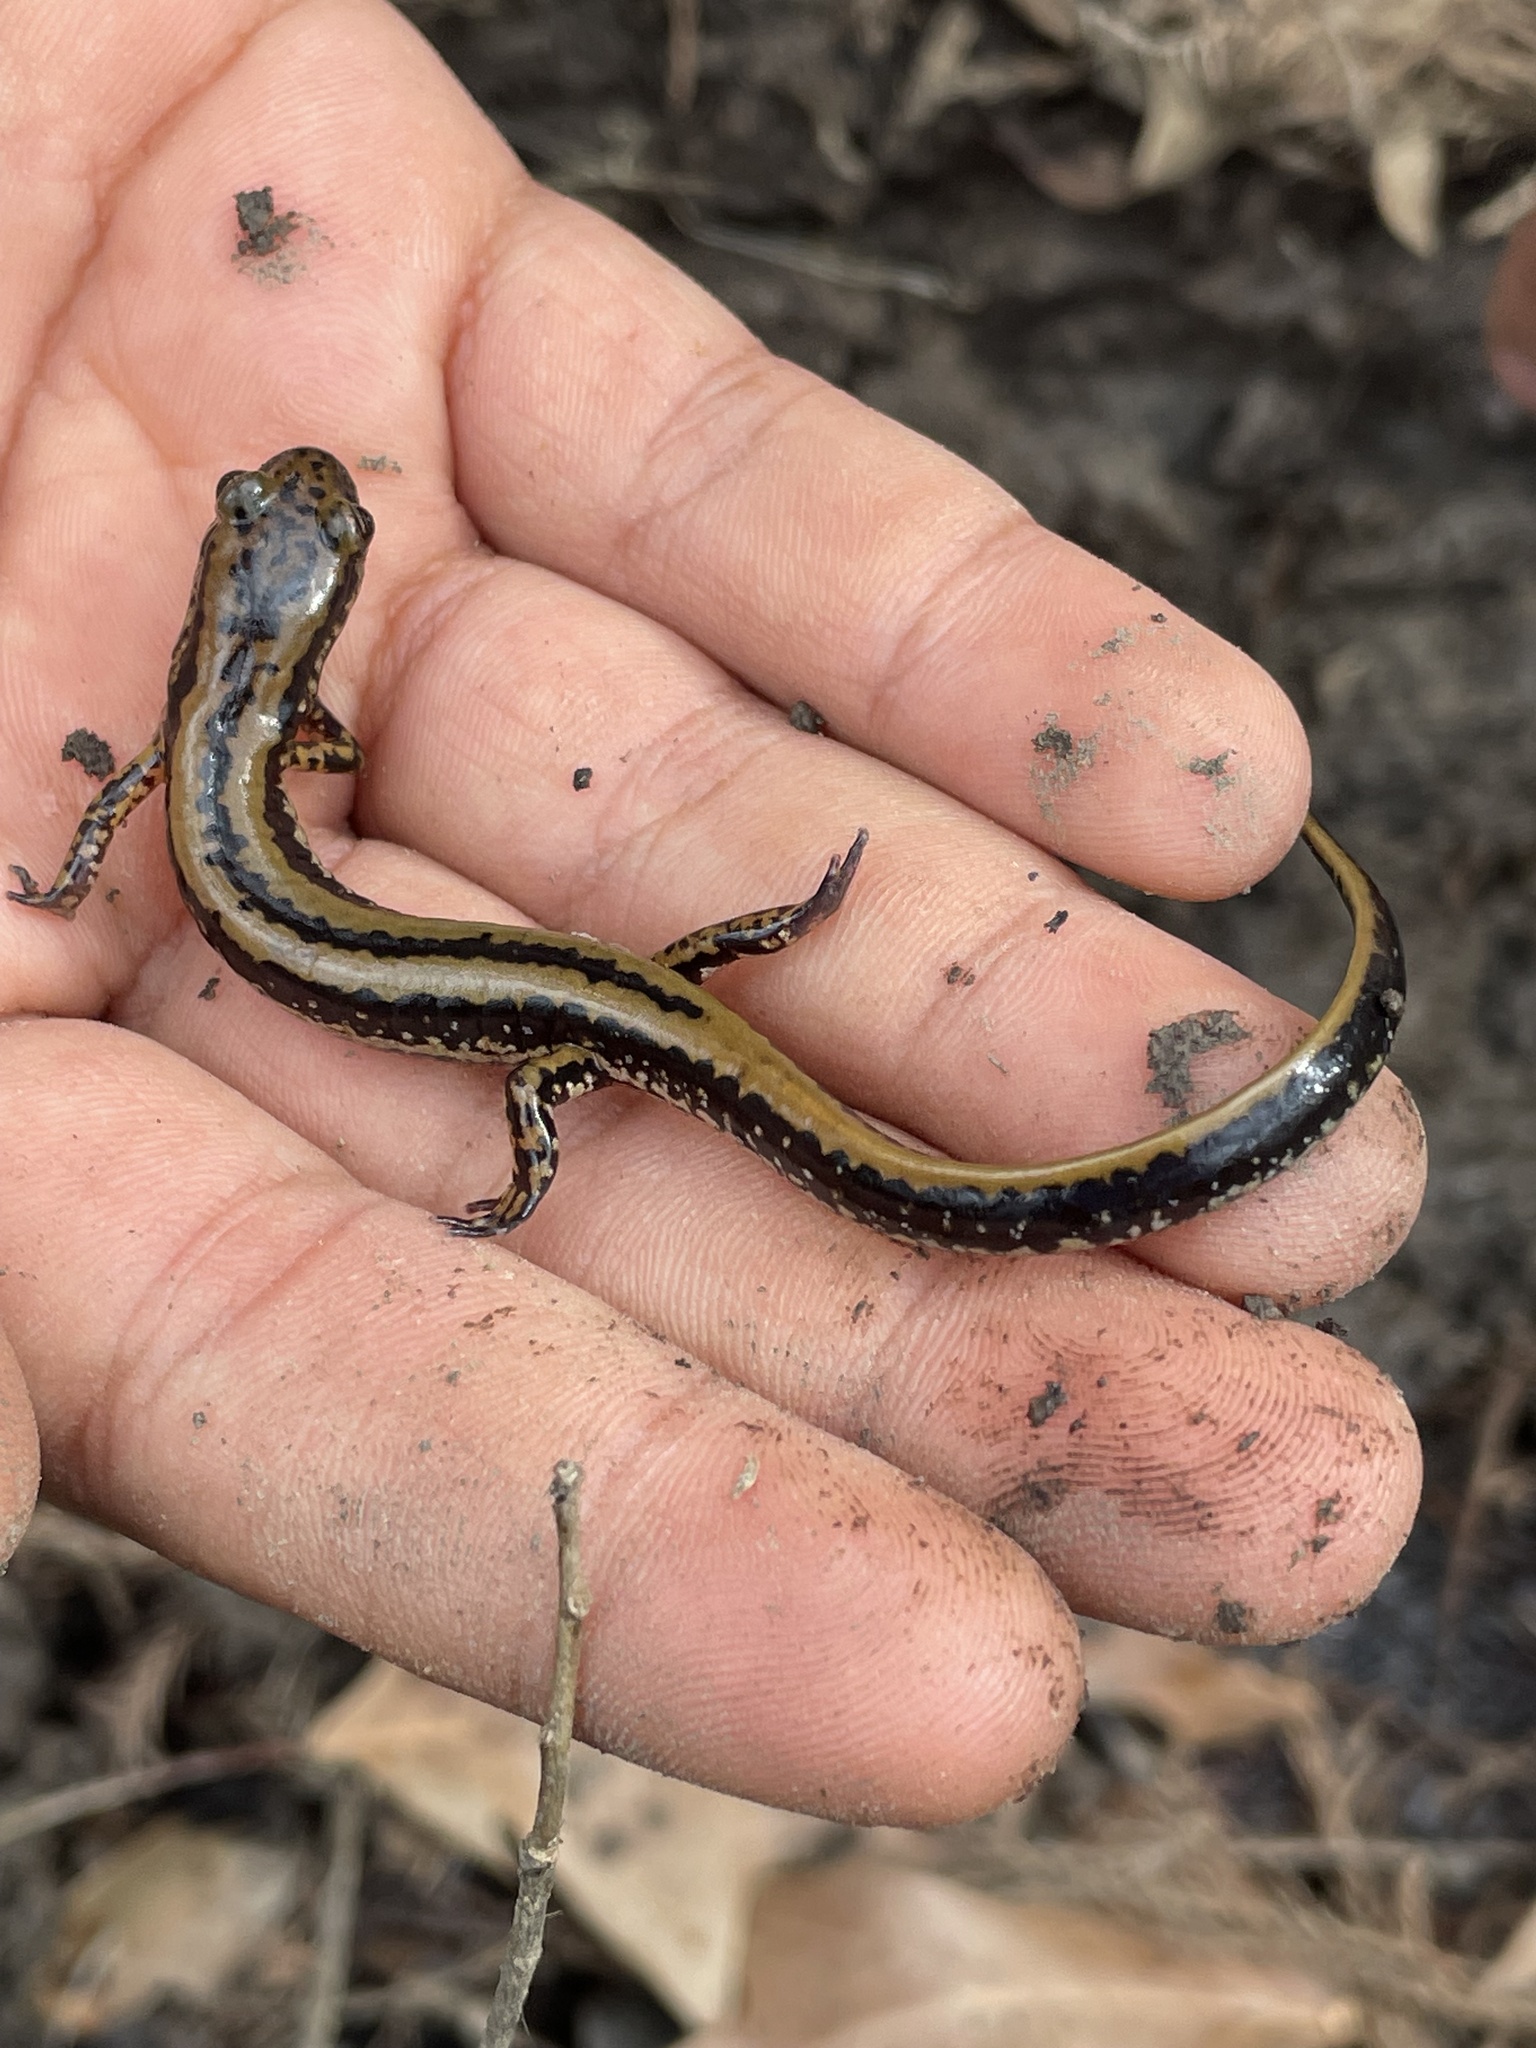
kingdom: Animalia
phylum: Chordata
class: Amphibia
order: Caudata
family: Plethodontidae
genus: Eurycea
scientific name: Eurycea guttolineata
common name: Three-lined salamander
